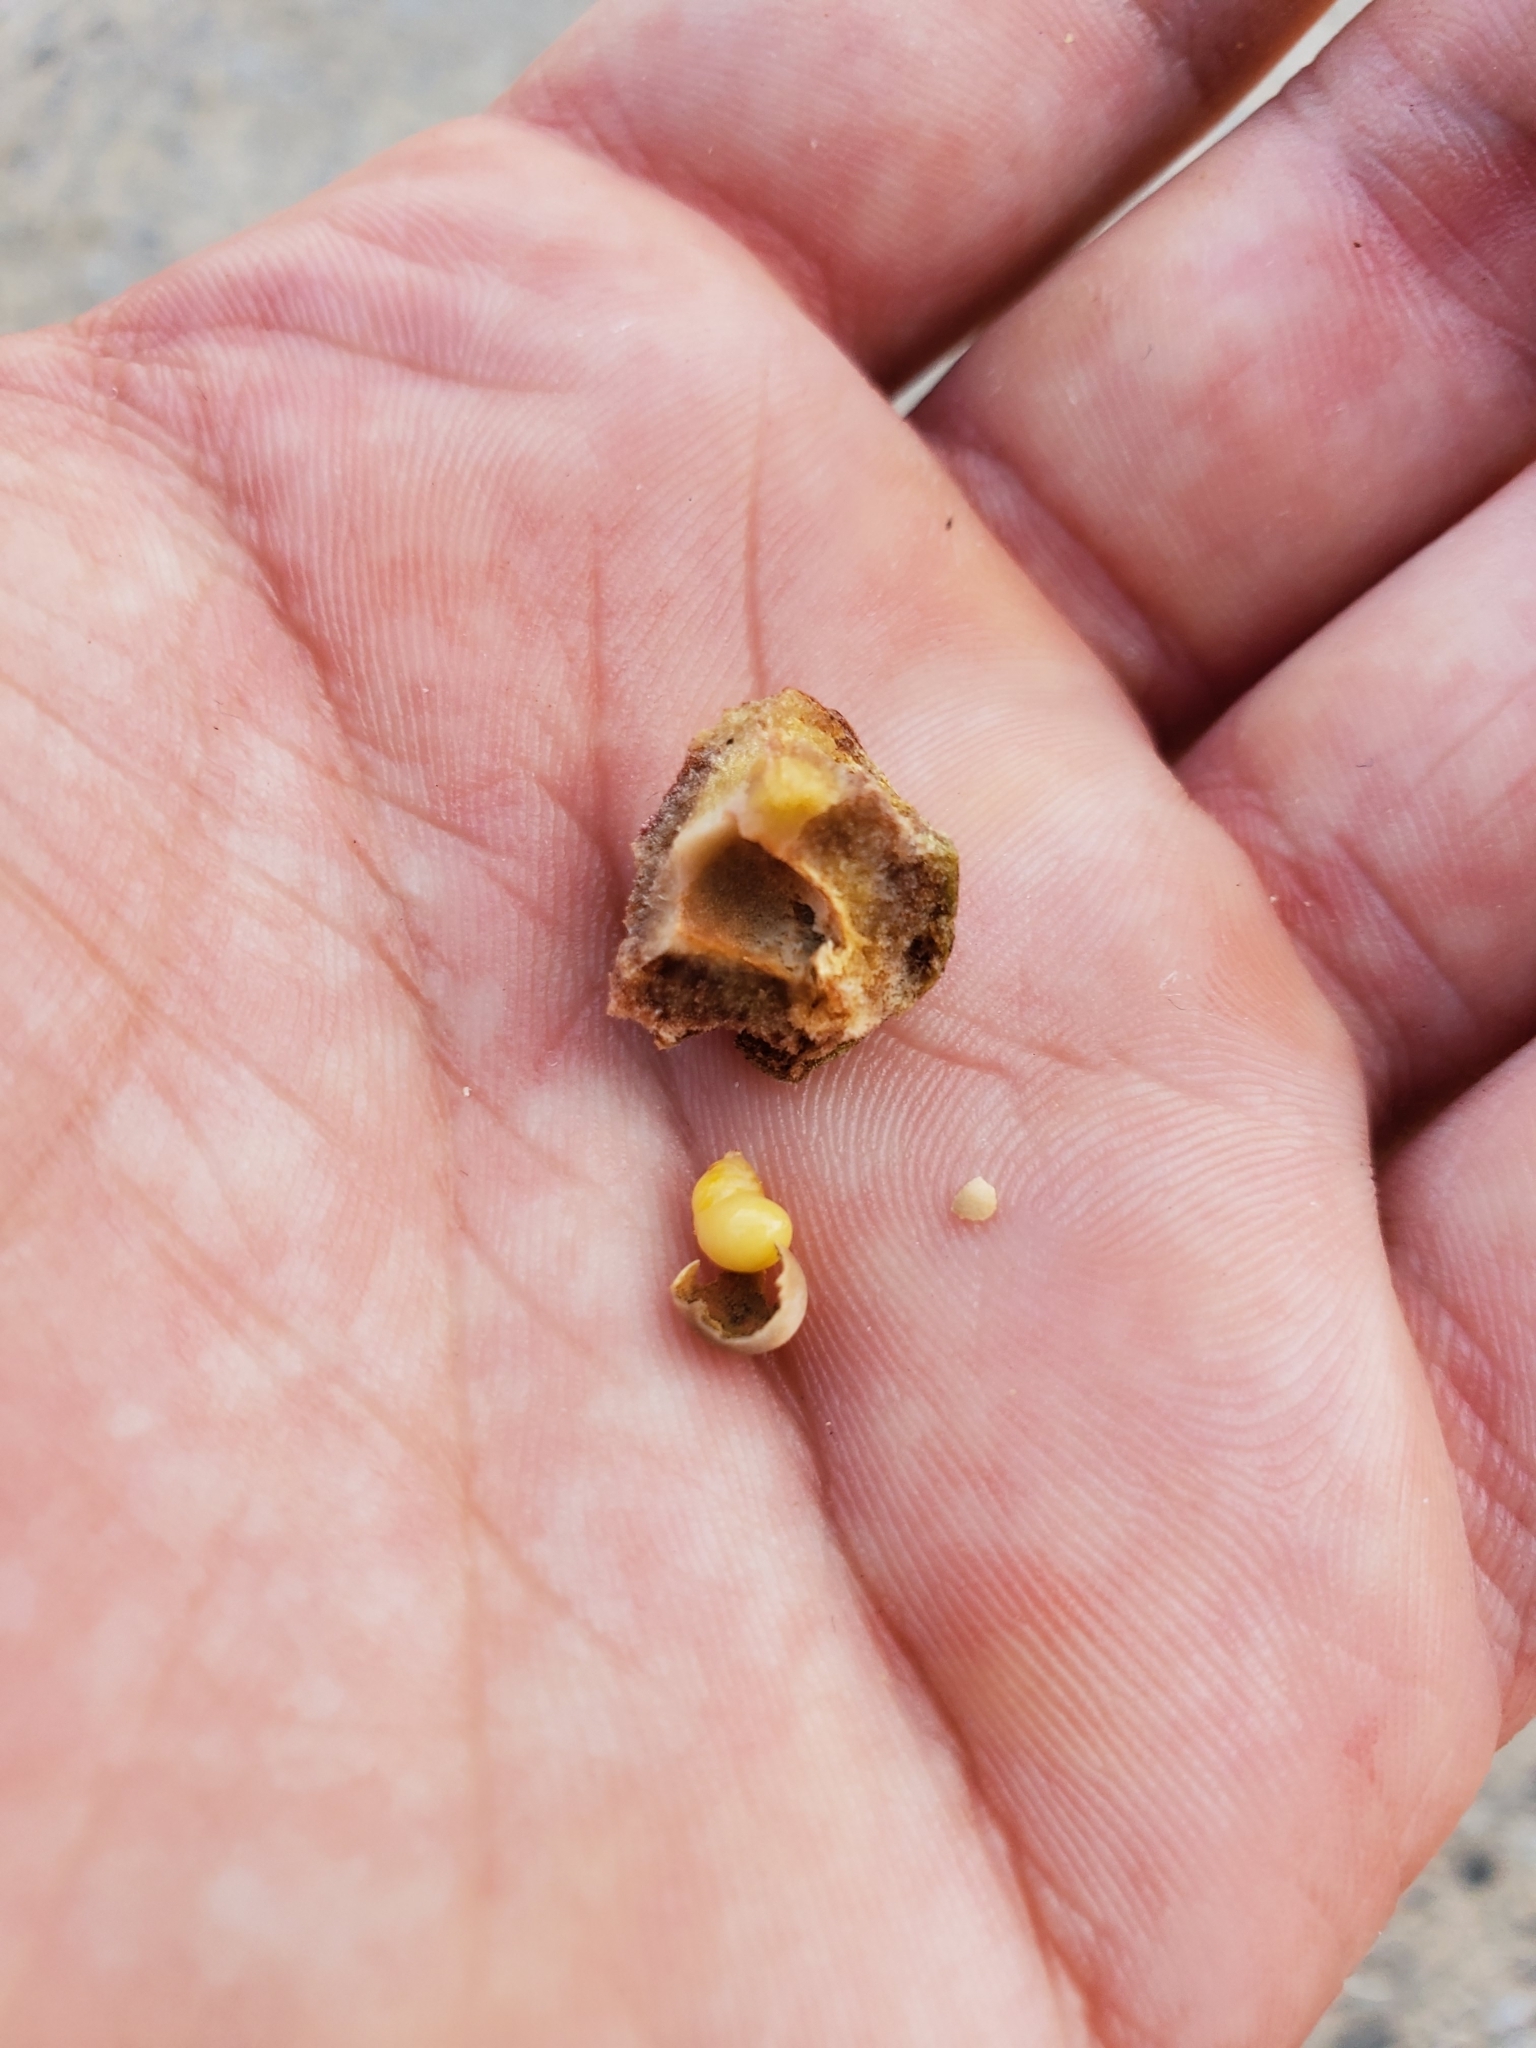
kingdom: Animalia
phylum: Arthropoda
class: Insecta
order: Hymenoptera
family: Cynipidae
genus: Disholcaspis
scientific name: Disholcaspis
